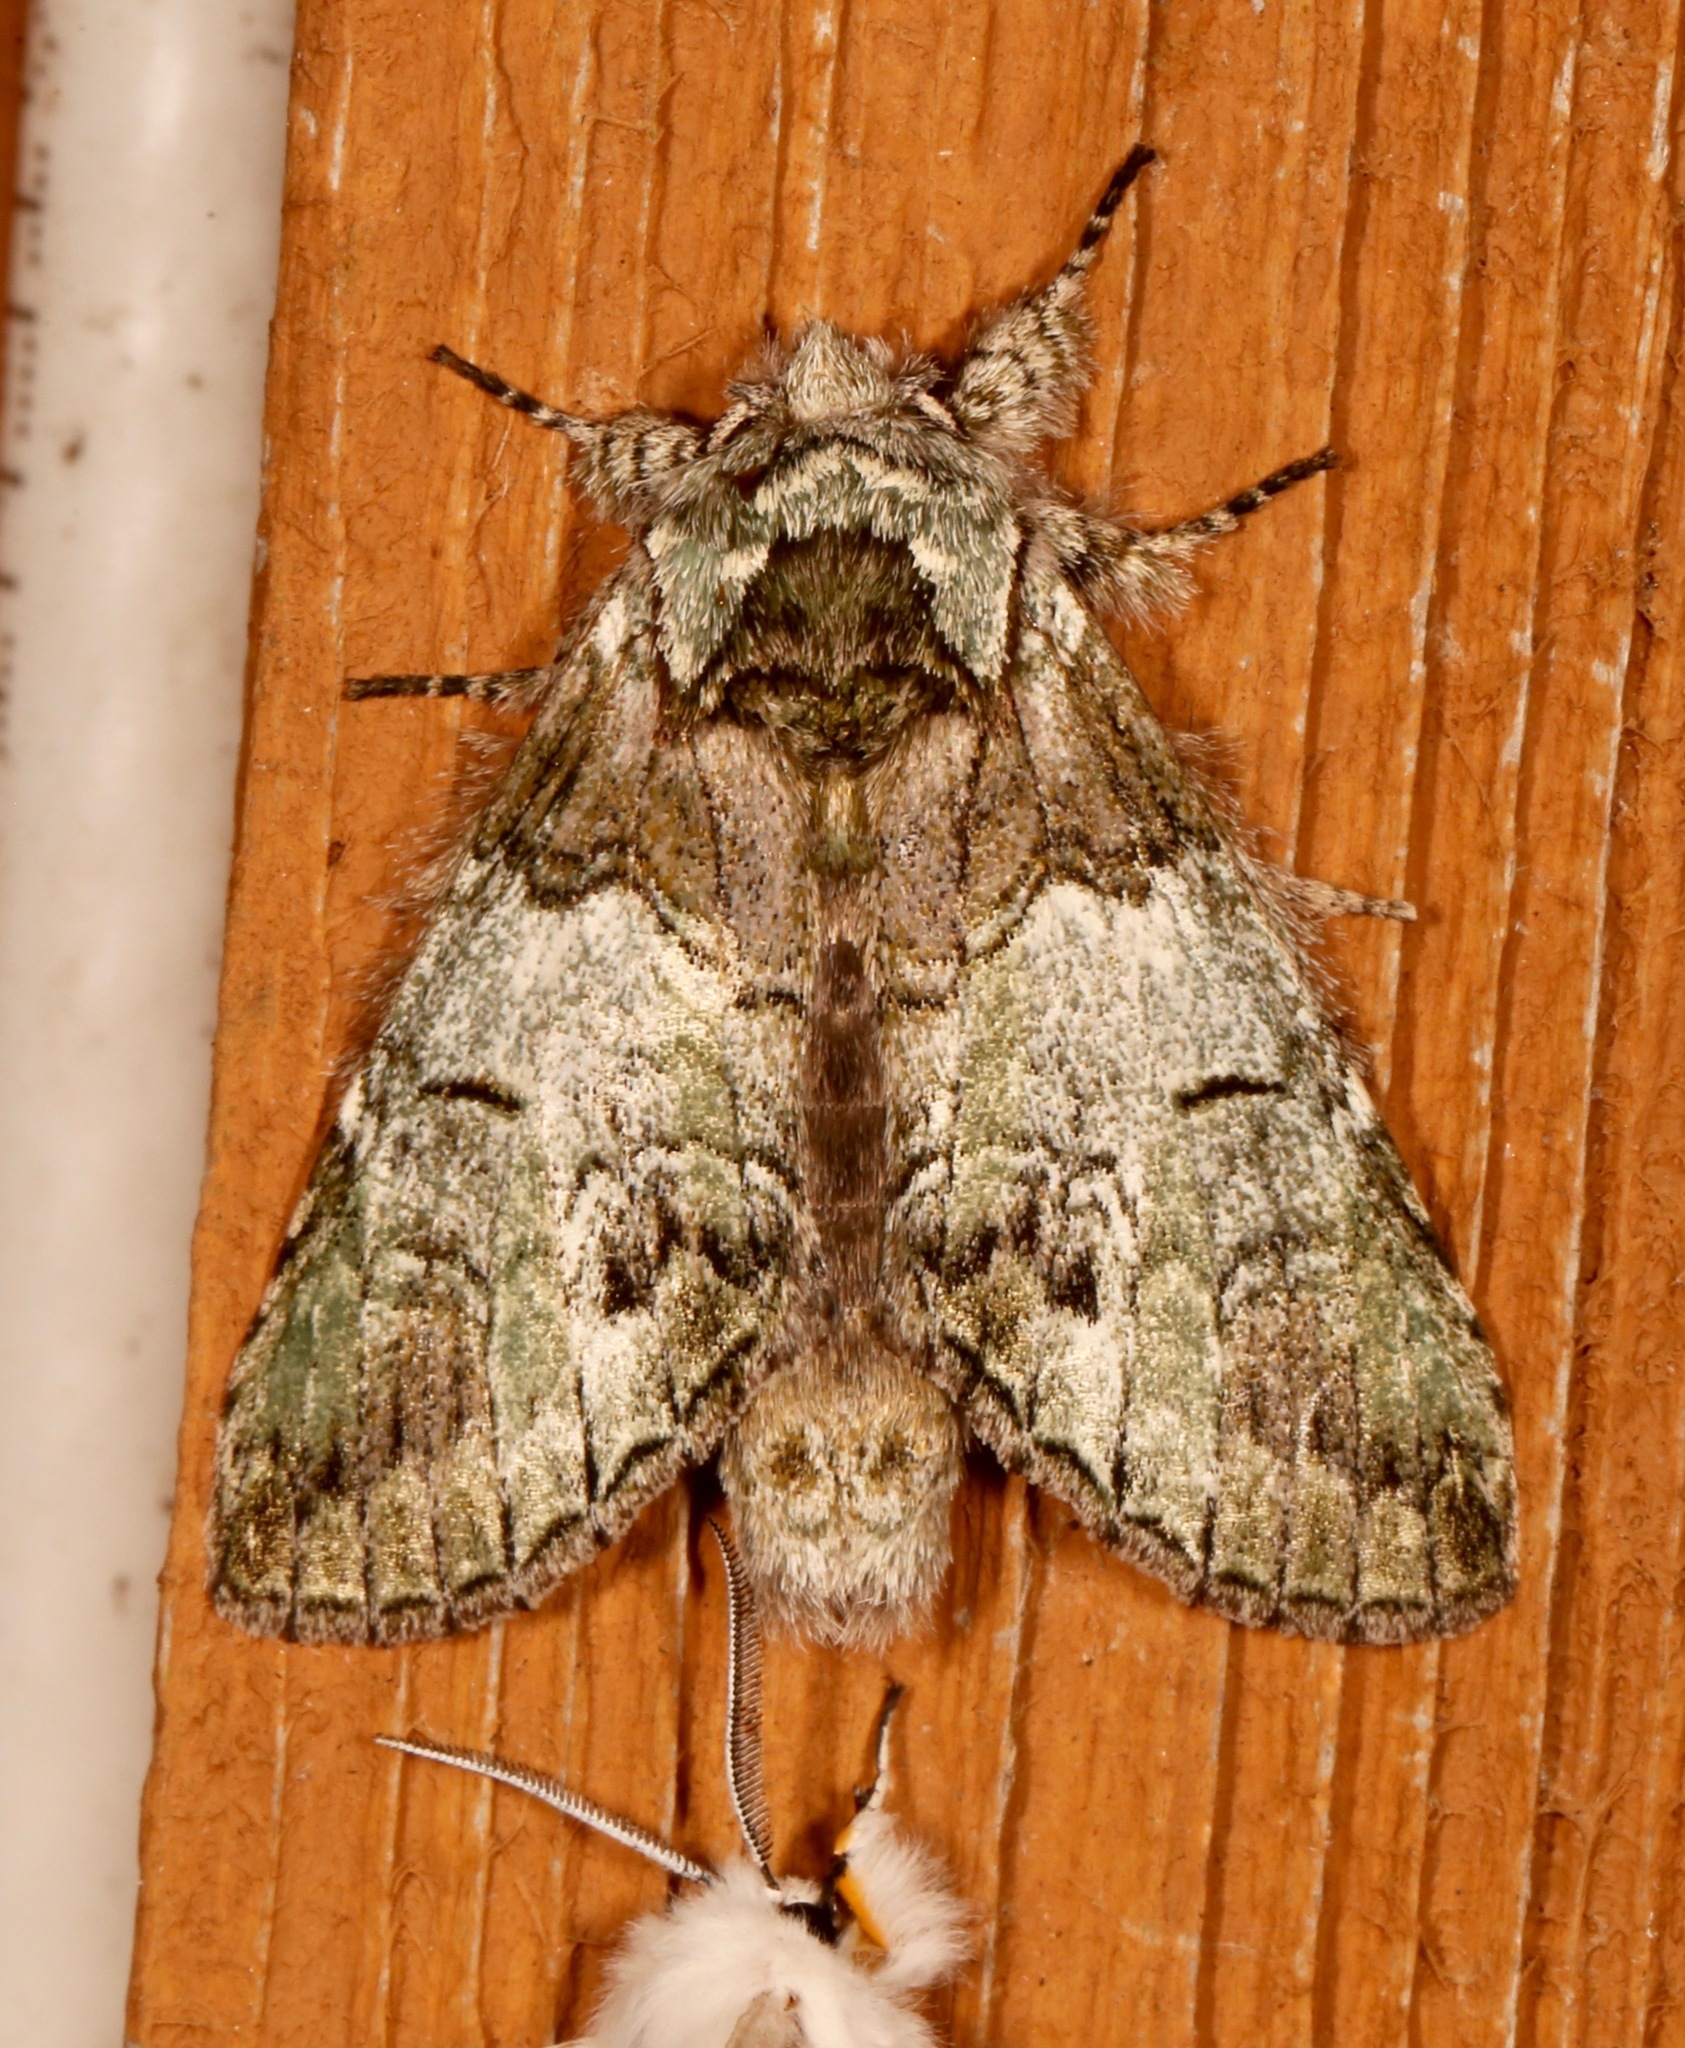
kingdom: Animalia
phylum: Arthropoda
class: Insecta
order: Lepidoptera
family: Notodontidae
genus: Macrurocampa
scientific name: Macrurocampa marthesia
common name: Mottled prominent
